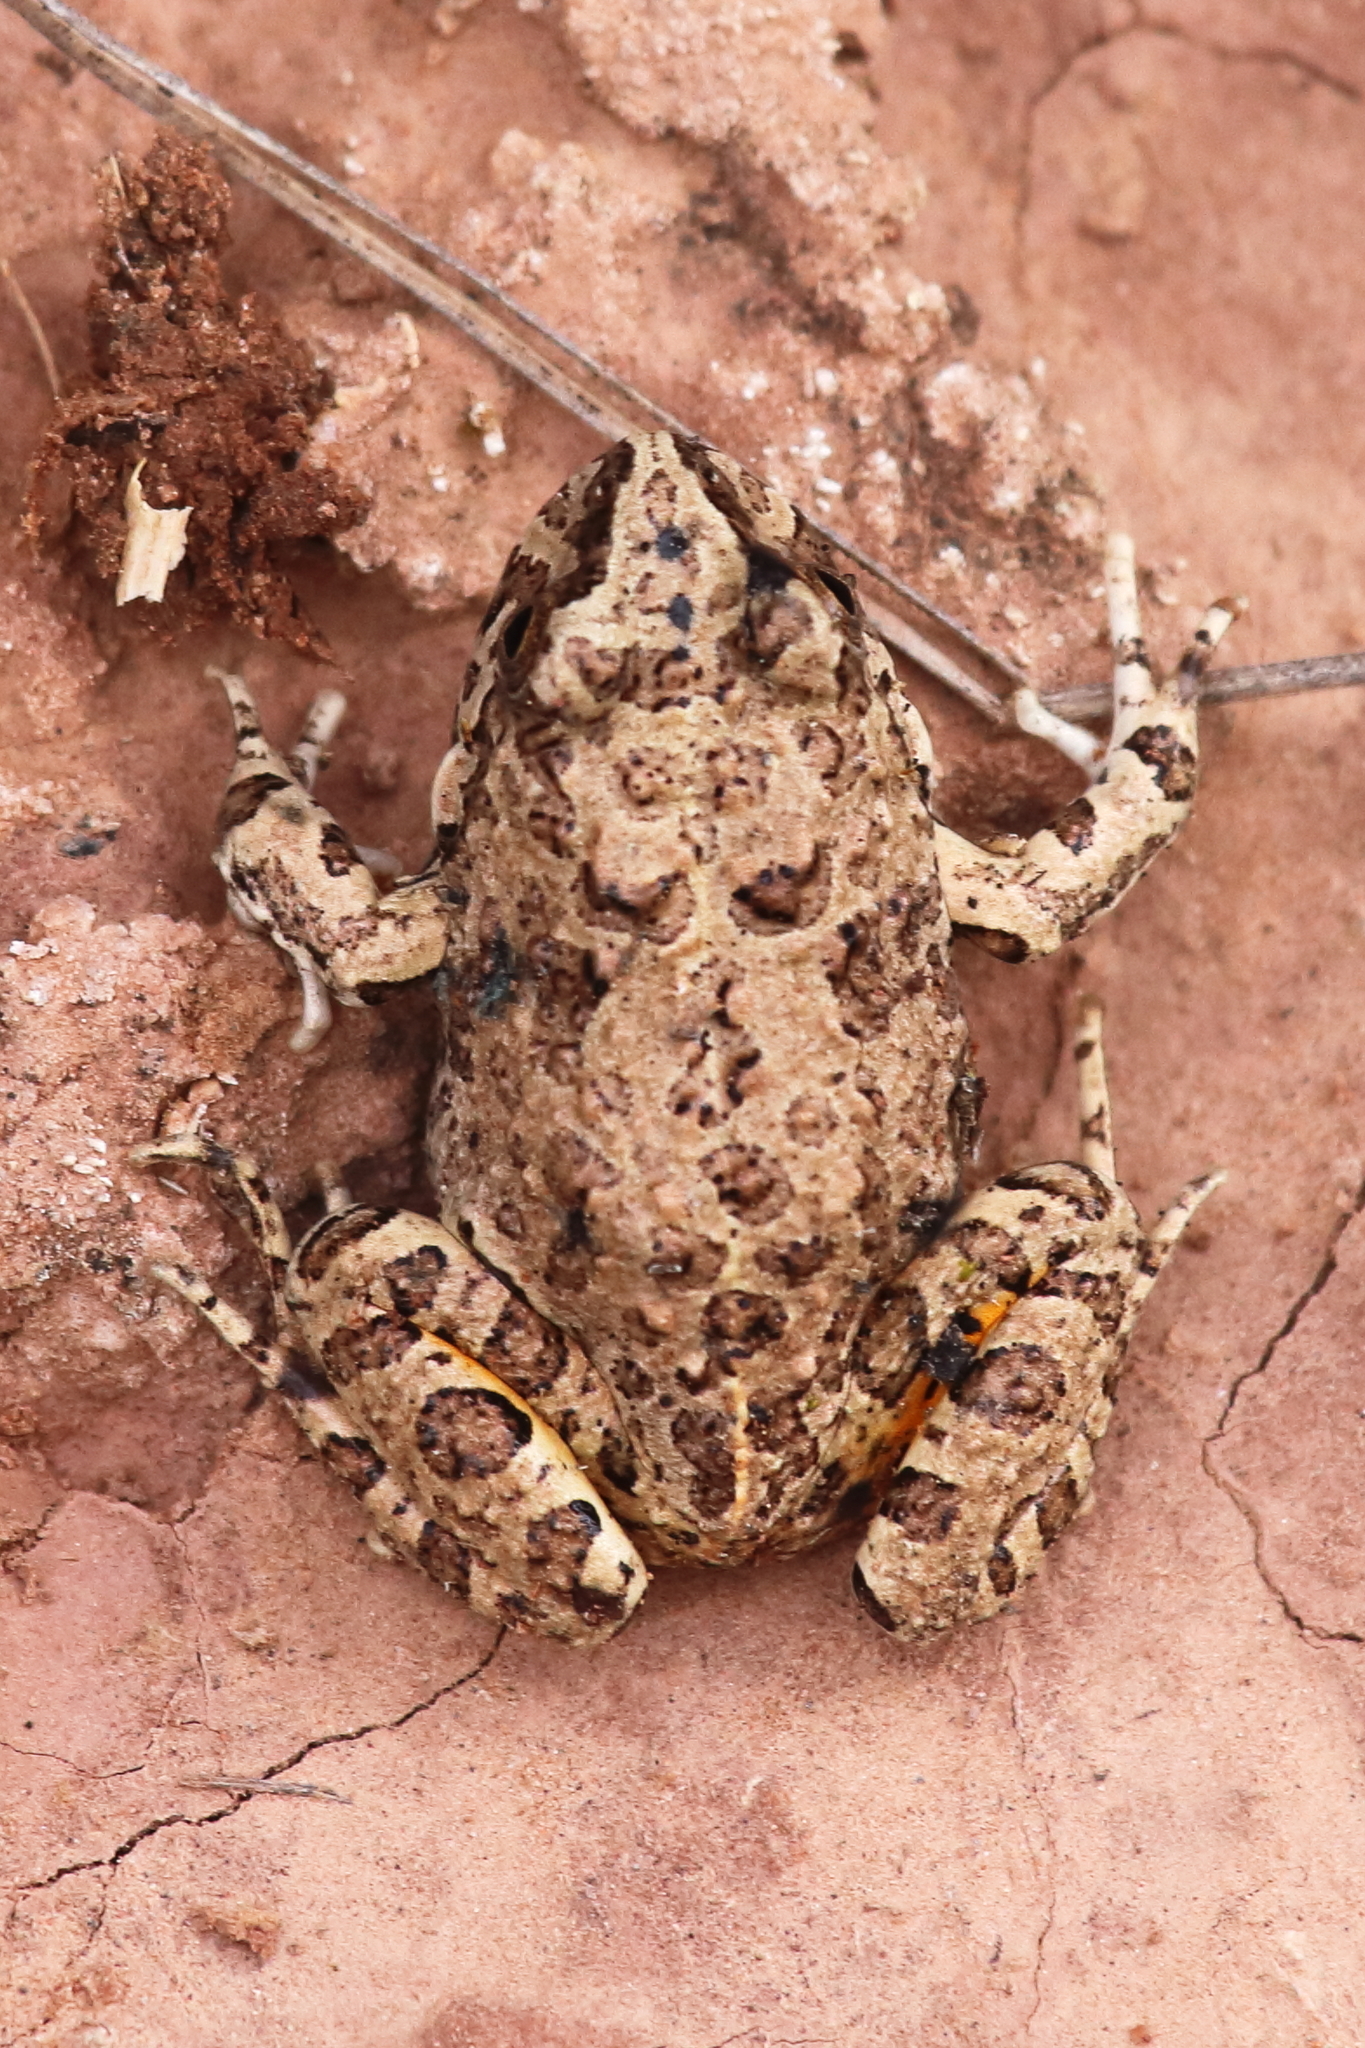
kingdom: Animalia
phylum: Chordata
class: Amphibia
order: Anura
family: Leptodactylidae
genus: Pleurodema
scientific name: Pleurodema cinereum
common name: Juliaca four-eyed frog
